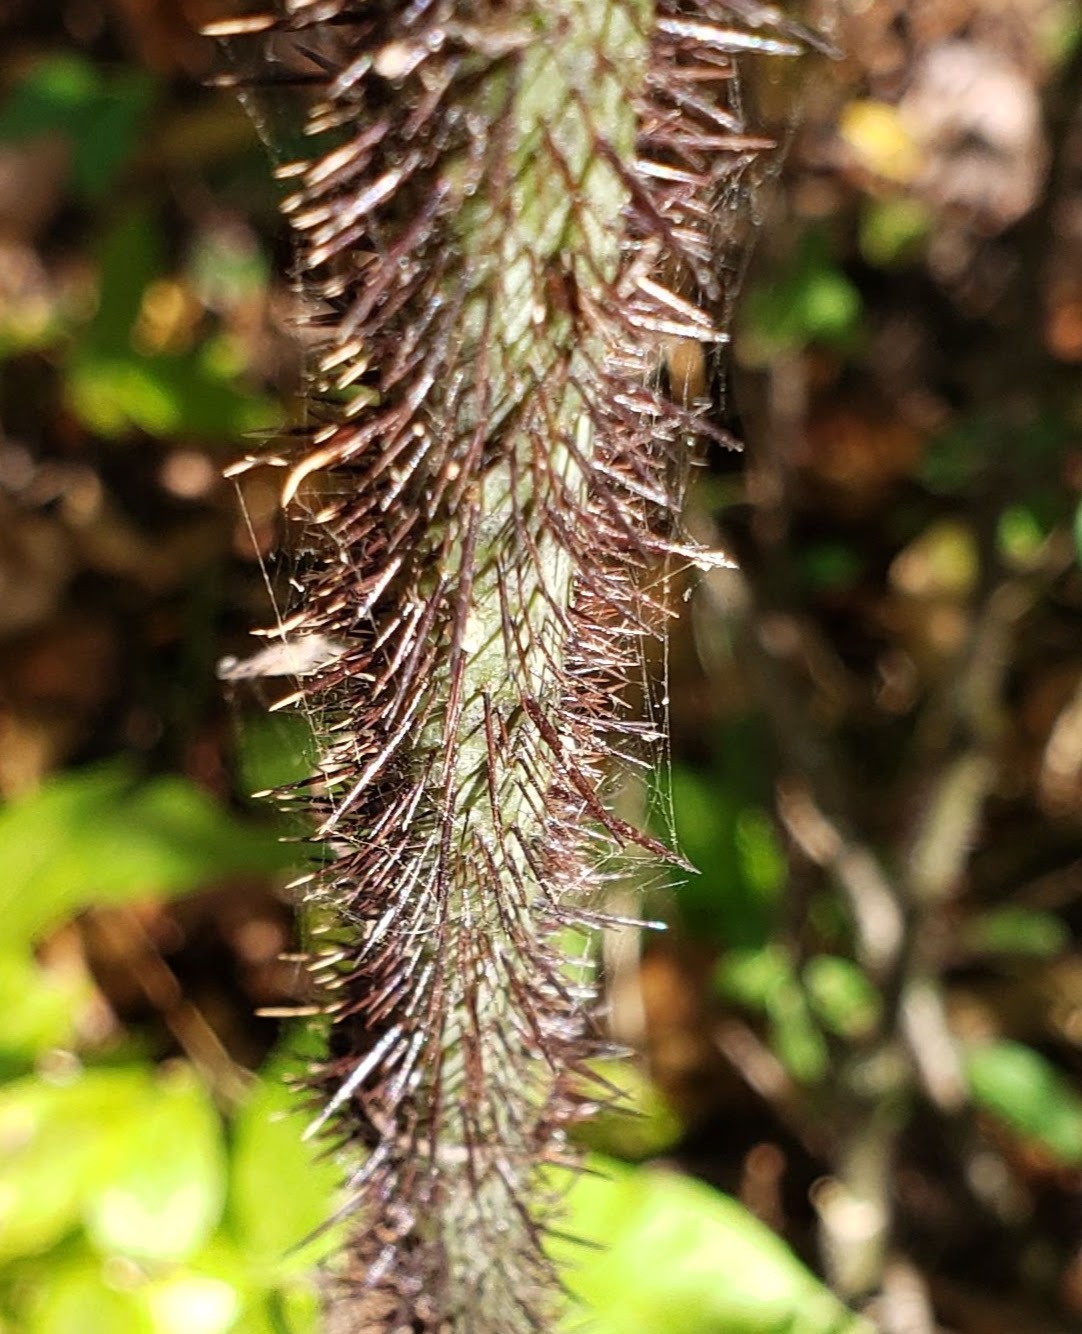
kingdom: Plantae
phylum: Tracheophyta
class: Liliopsida
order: Liliales
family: Smilacaceae
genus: Smilax
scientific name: Smilax tamnoides
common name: Hellfetter
